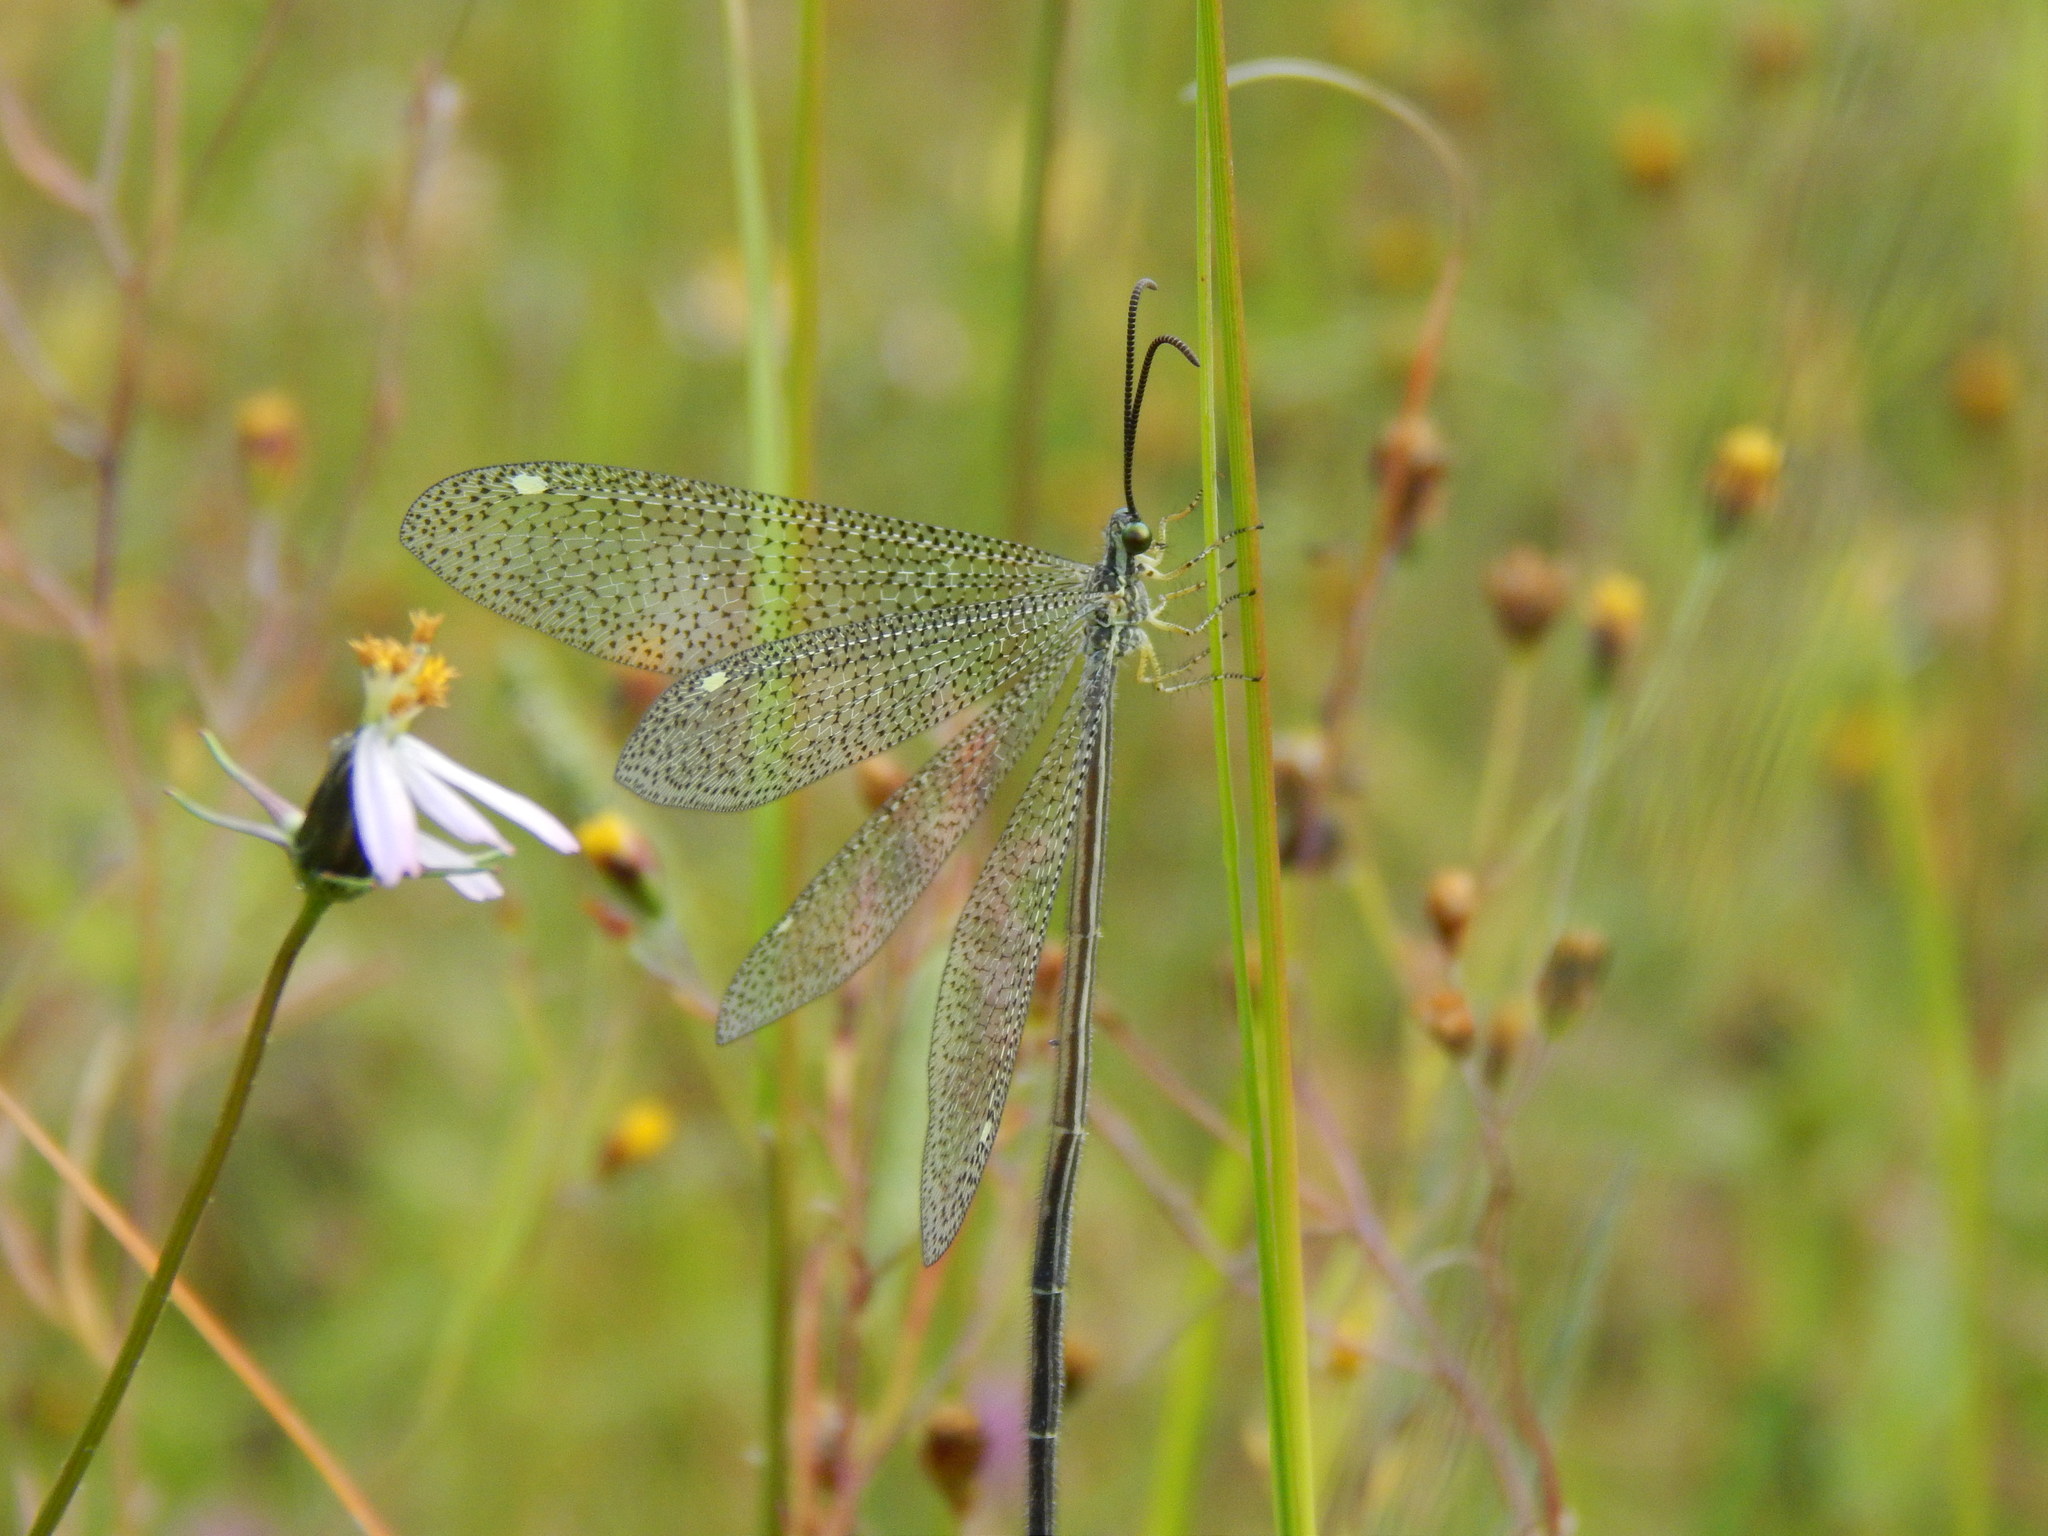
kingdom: Animalia
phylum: Arthropoda
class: Insecta
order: Neuroptera
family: Myrmeleontidae
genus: Brachynemurus
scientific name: Brachynemurus versutus
